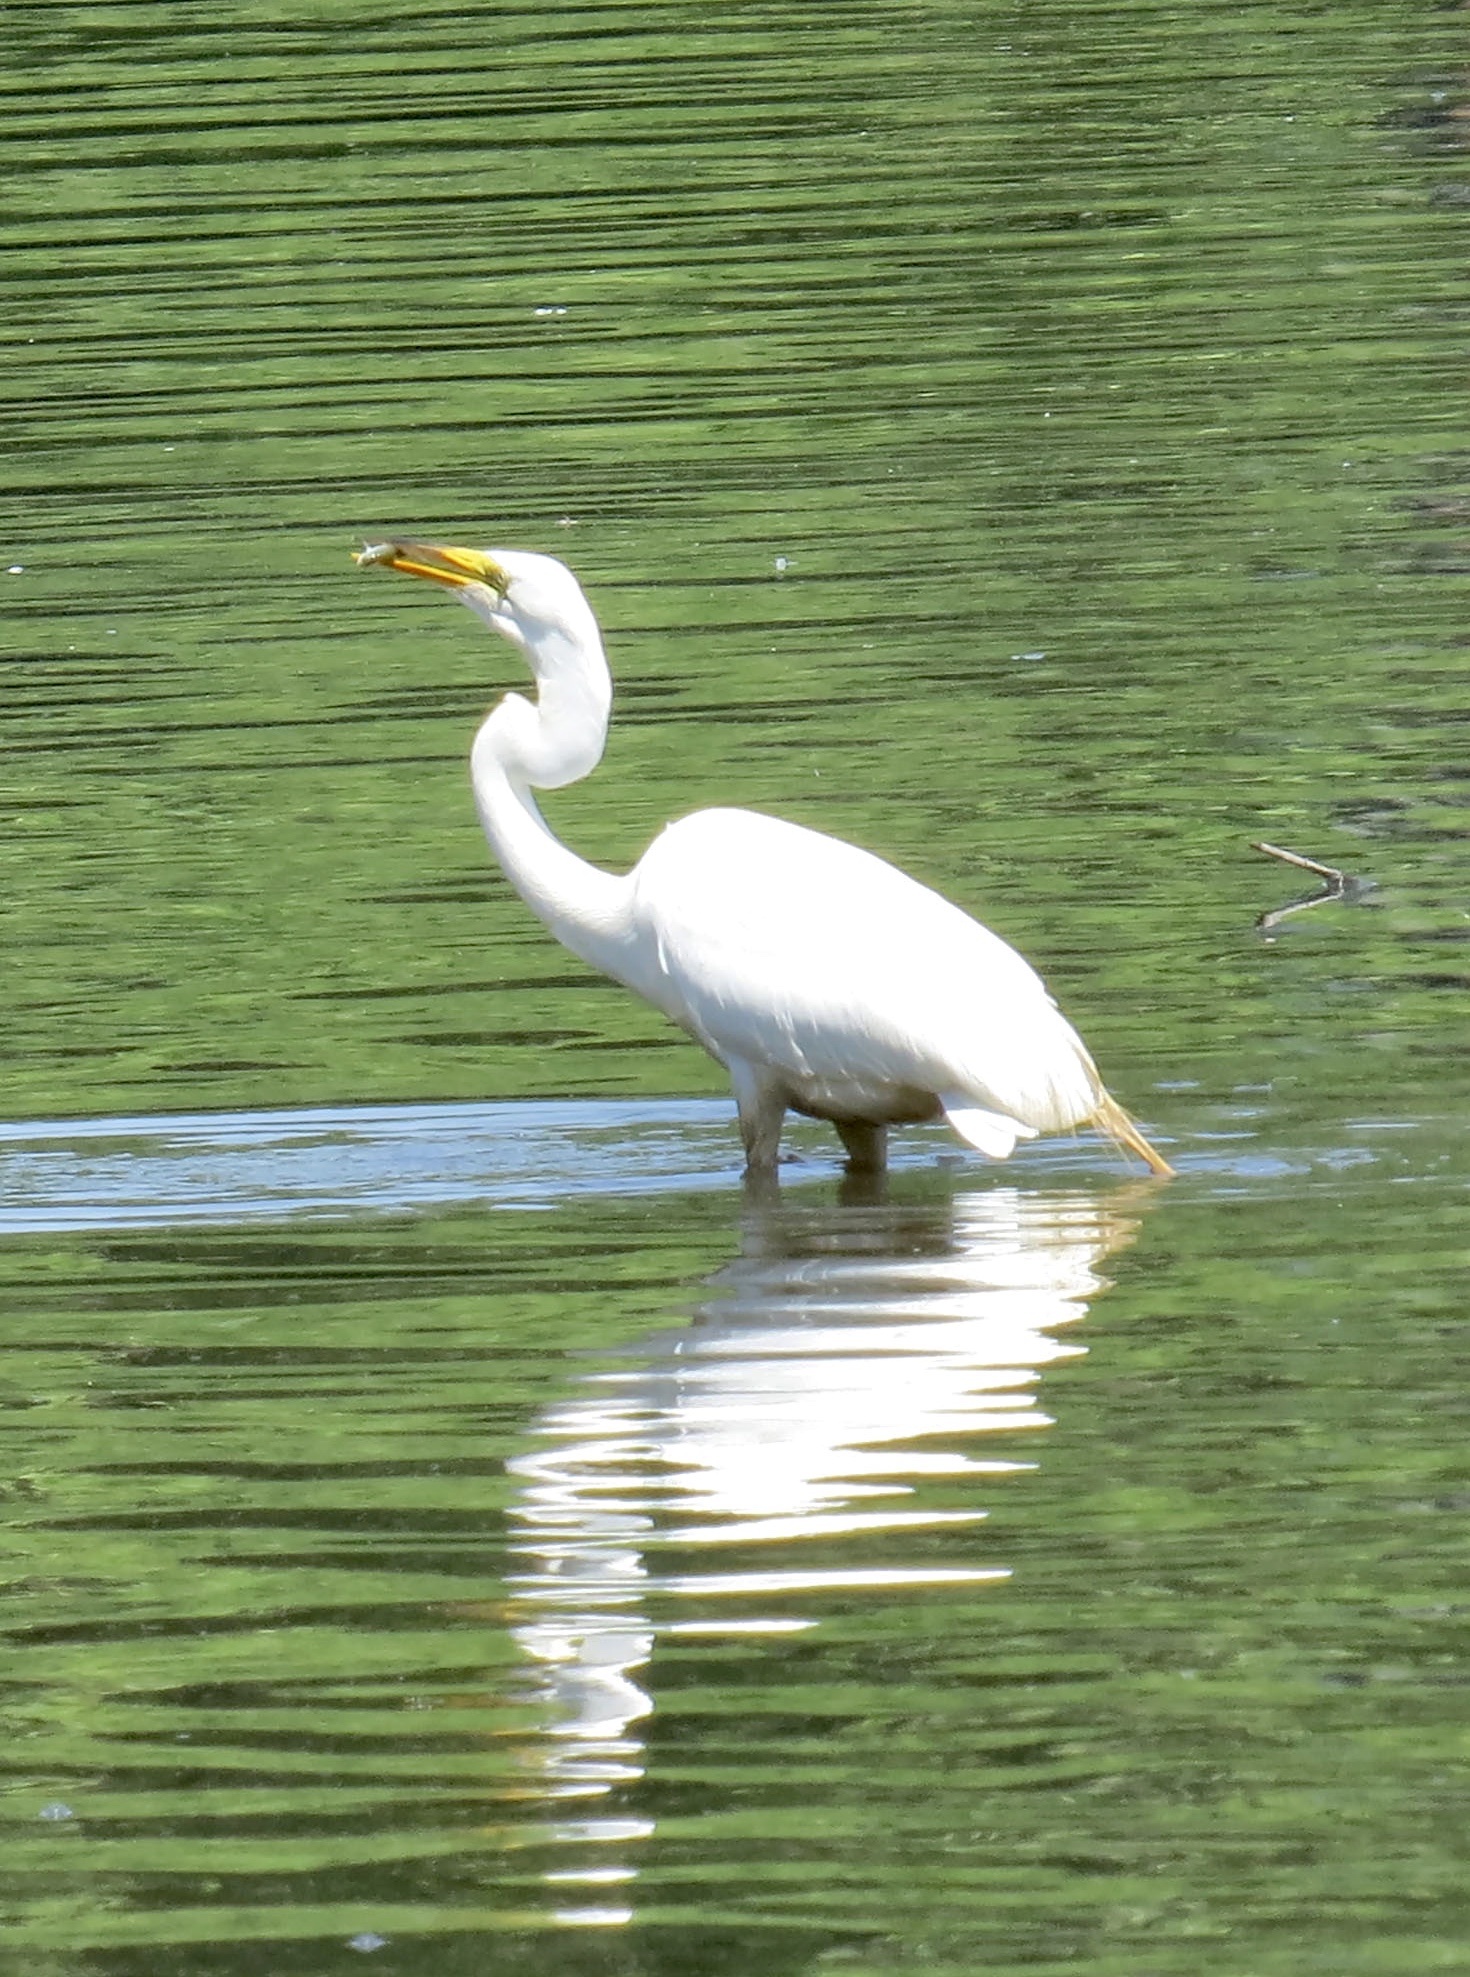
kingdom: Animalia
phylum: Chordata
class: Aves
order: Pelecaniformes
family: Ardeidae
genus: Ardea
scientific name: Ardea alba
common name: Great egret
